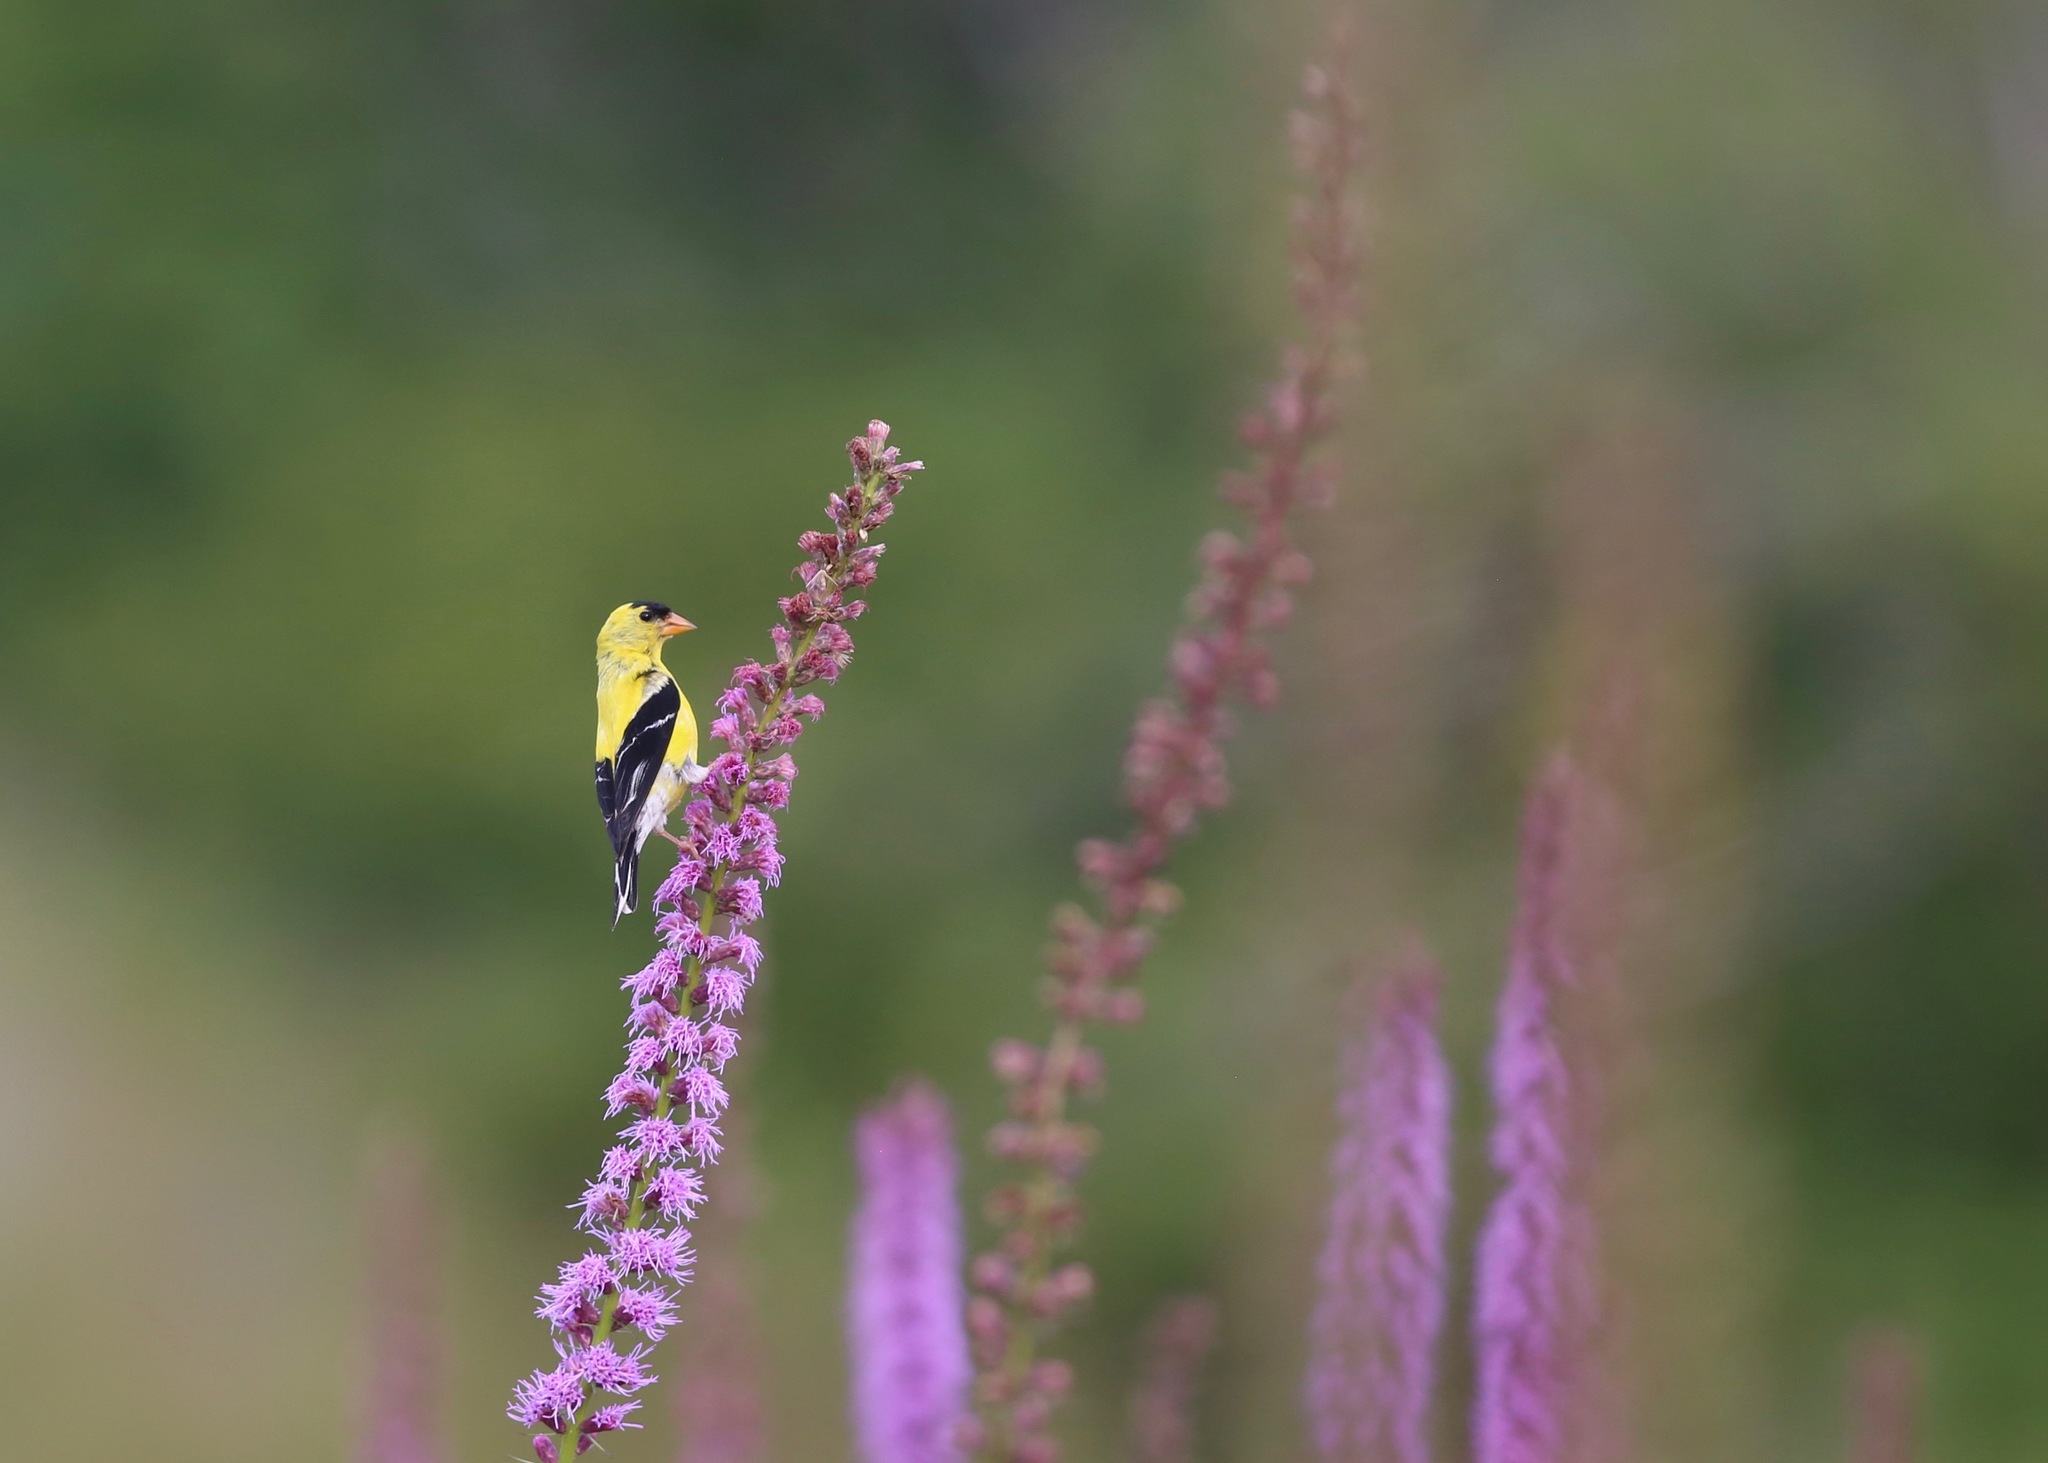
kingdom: Animalia
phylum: Chordata
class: Aves
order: Passeriformes
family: Fringillidae
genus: Spinus
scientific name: Spinus tristis
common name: American goldfinch
